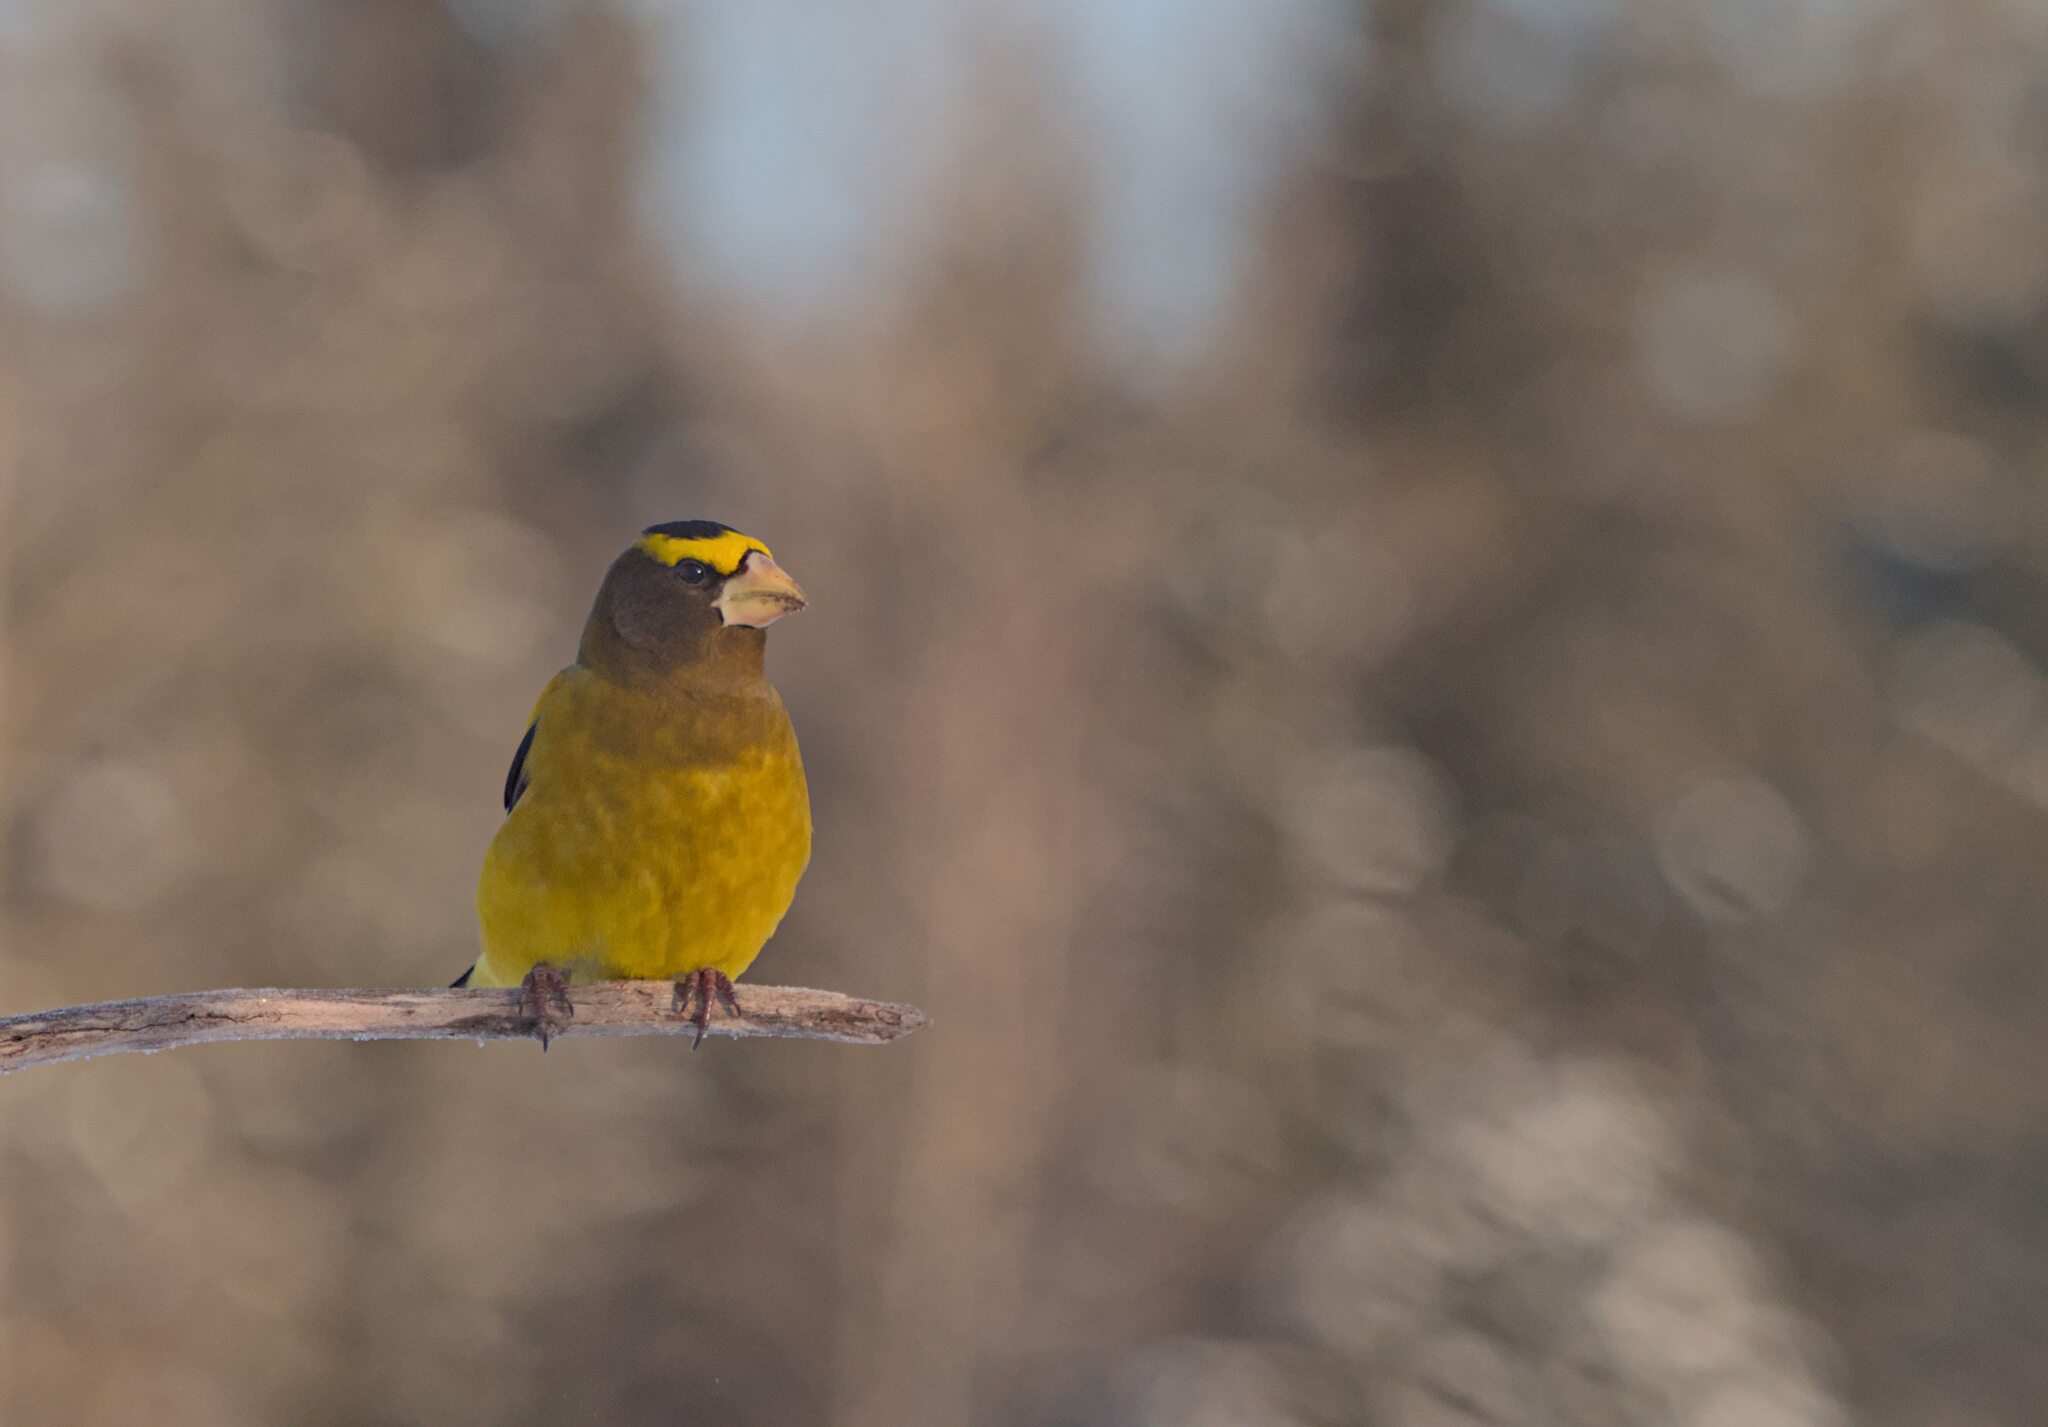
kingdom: Animalia
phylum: Chordata
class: Aves
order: Passeriformes
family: Fringillidae
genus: Hesperiphona
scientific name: Hesperiphona vespertina
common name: Evening grosbeak
